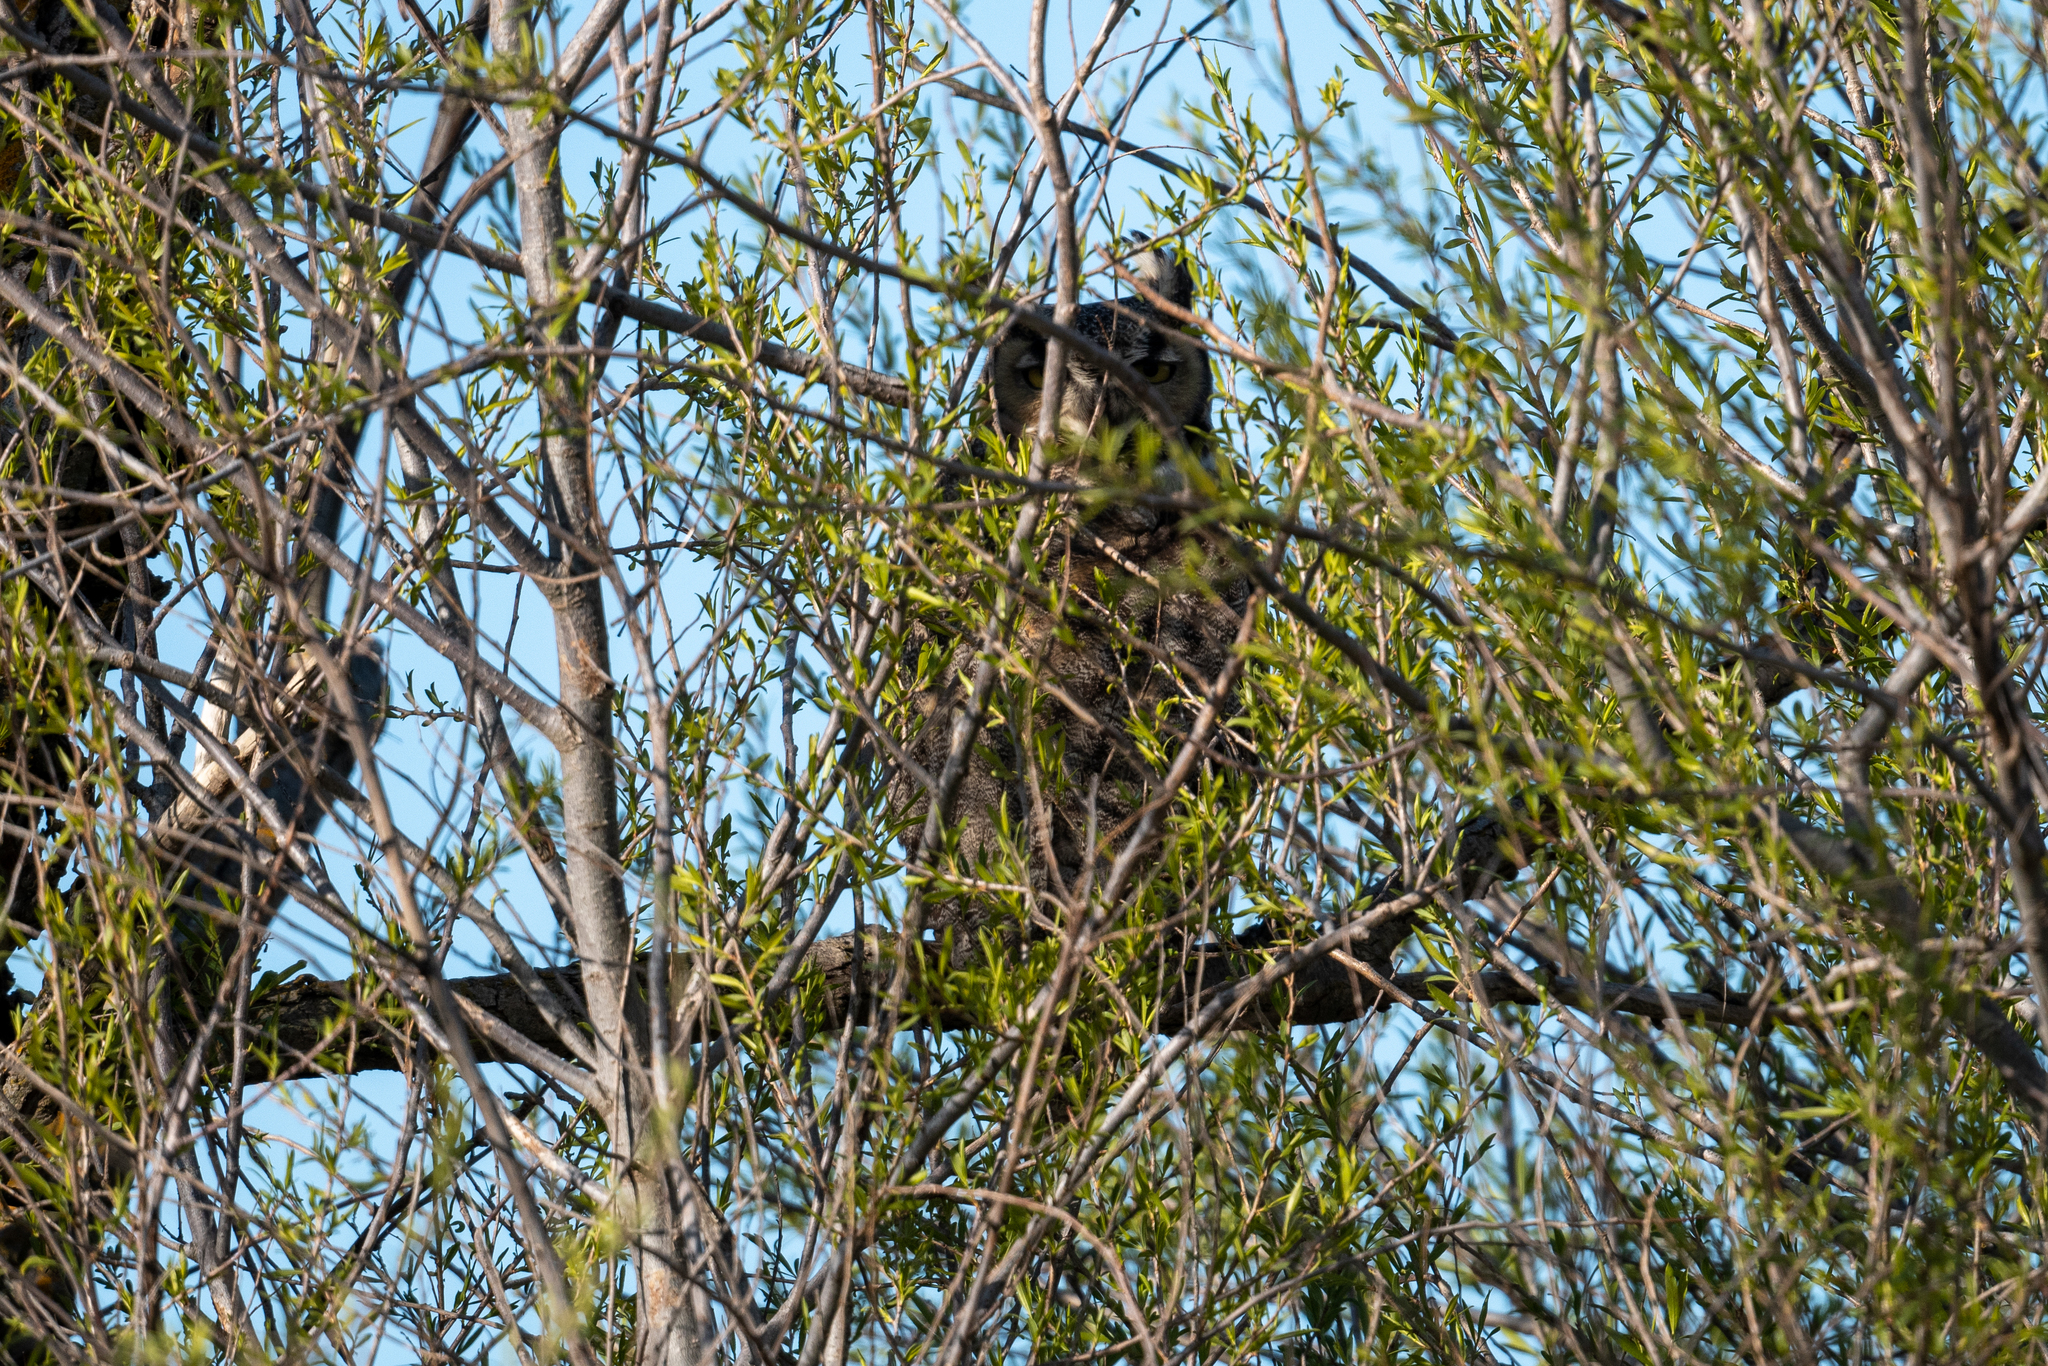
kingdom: Animalia
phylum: Chordata
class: Aves
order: Strigiformes
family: Strigidae
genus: Bubo
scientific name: Bubo virginianus
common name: Great horned owl
